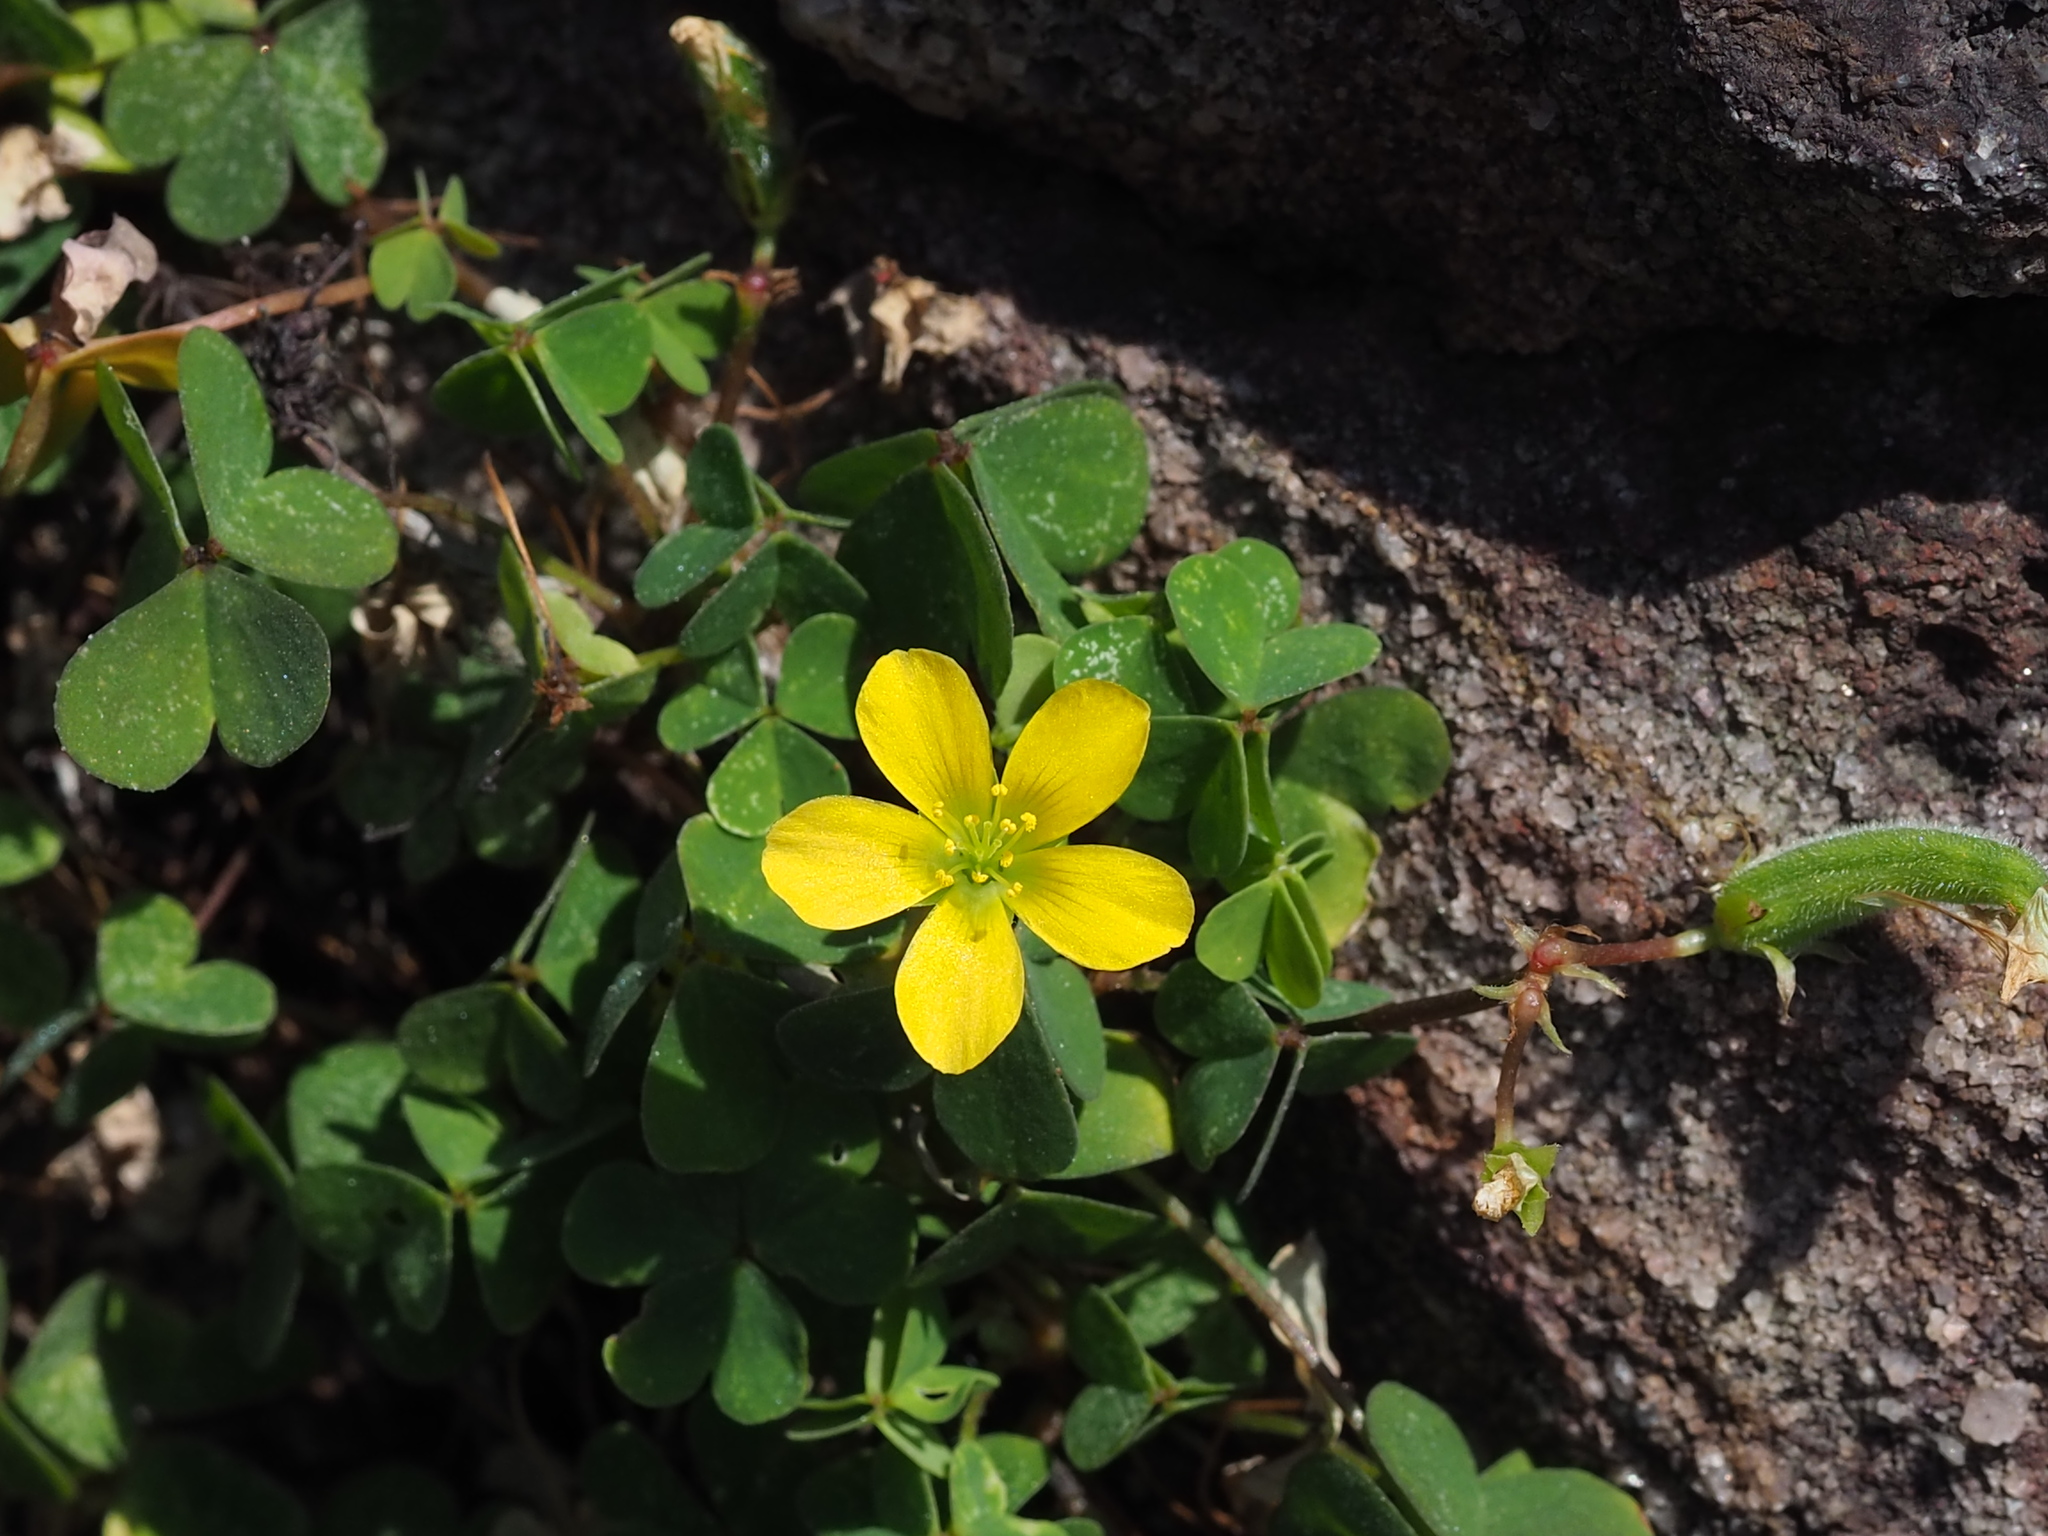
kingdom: Plantae
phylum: Tracheophyta
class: Magnoliopsida
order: Oxalidales
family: Oxalidaceae
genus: Oxalis
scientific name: Oxalis corniculata
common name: Procumbent yellow-sorrel
